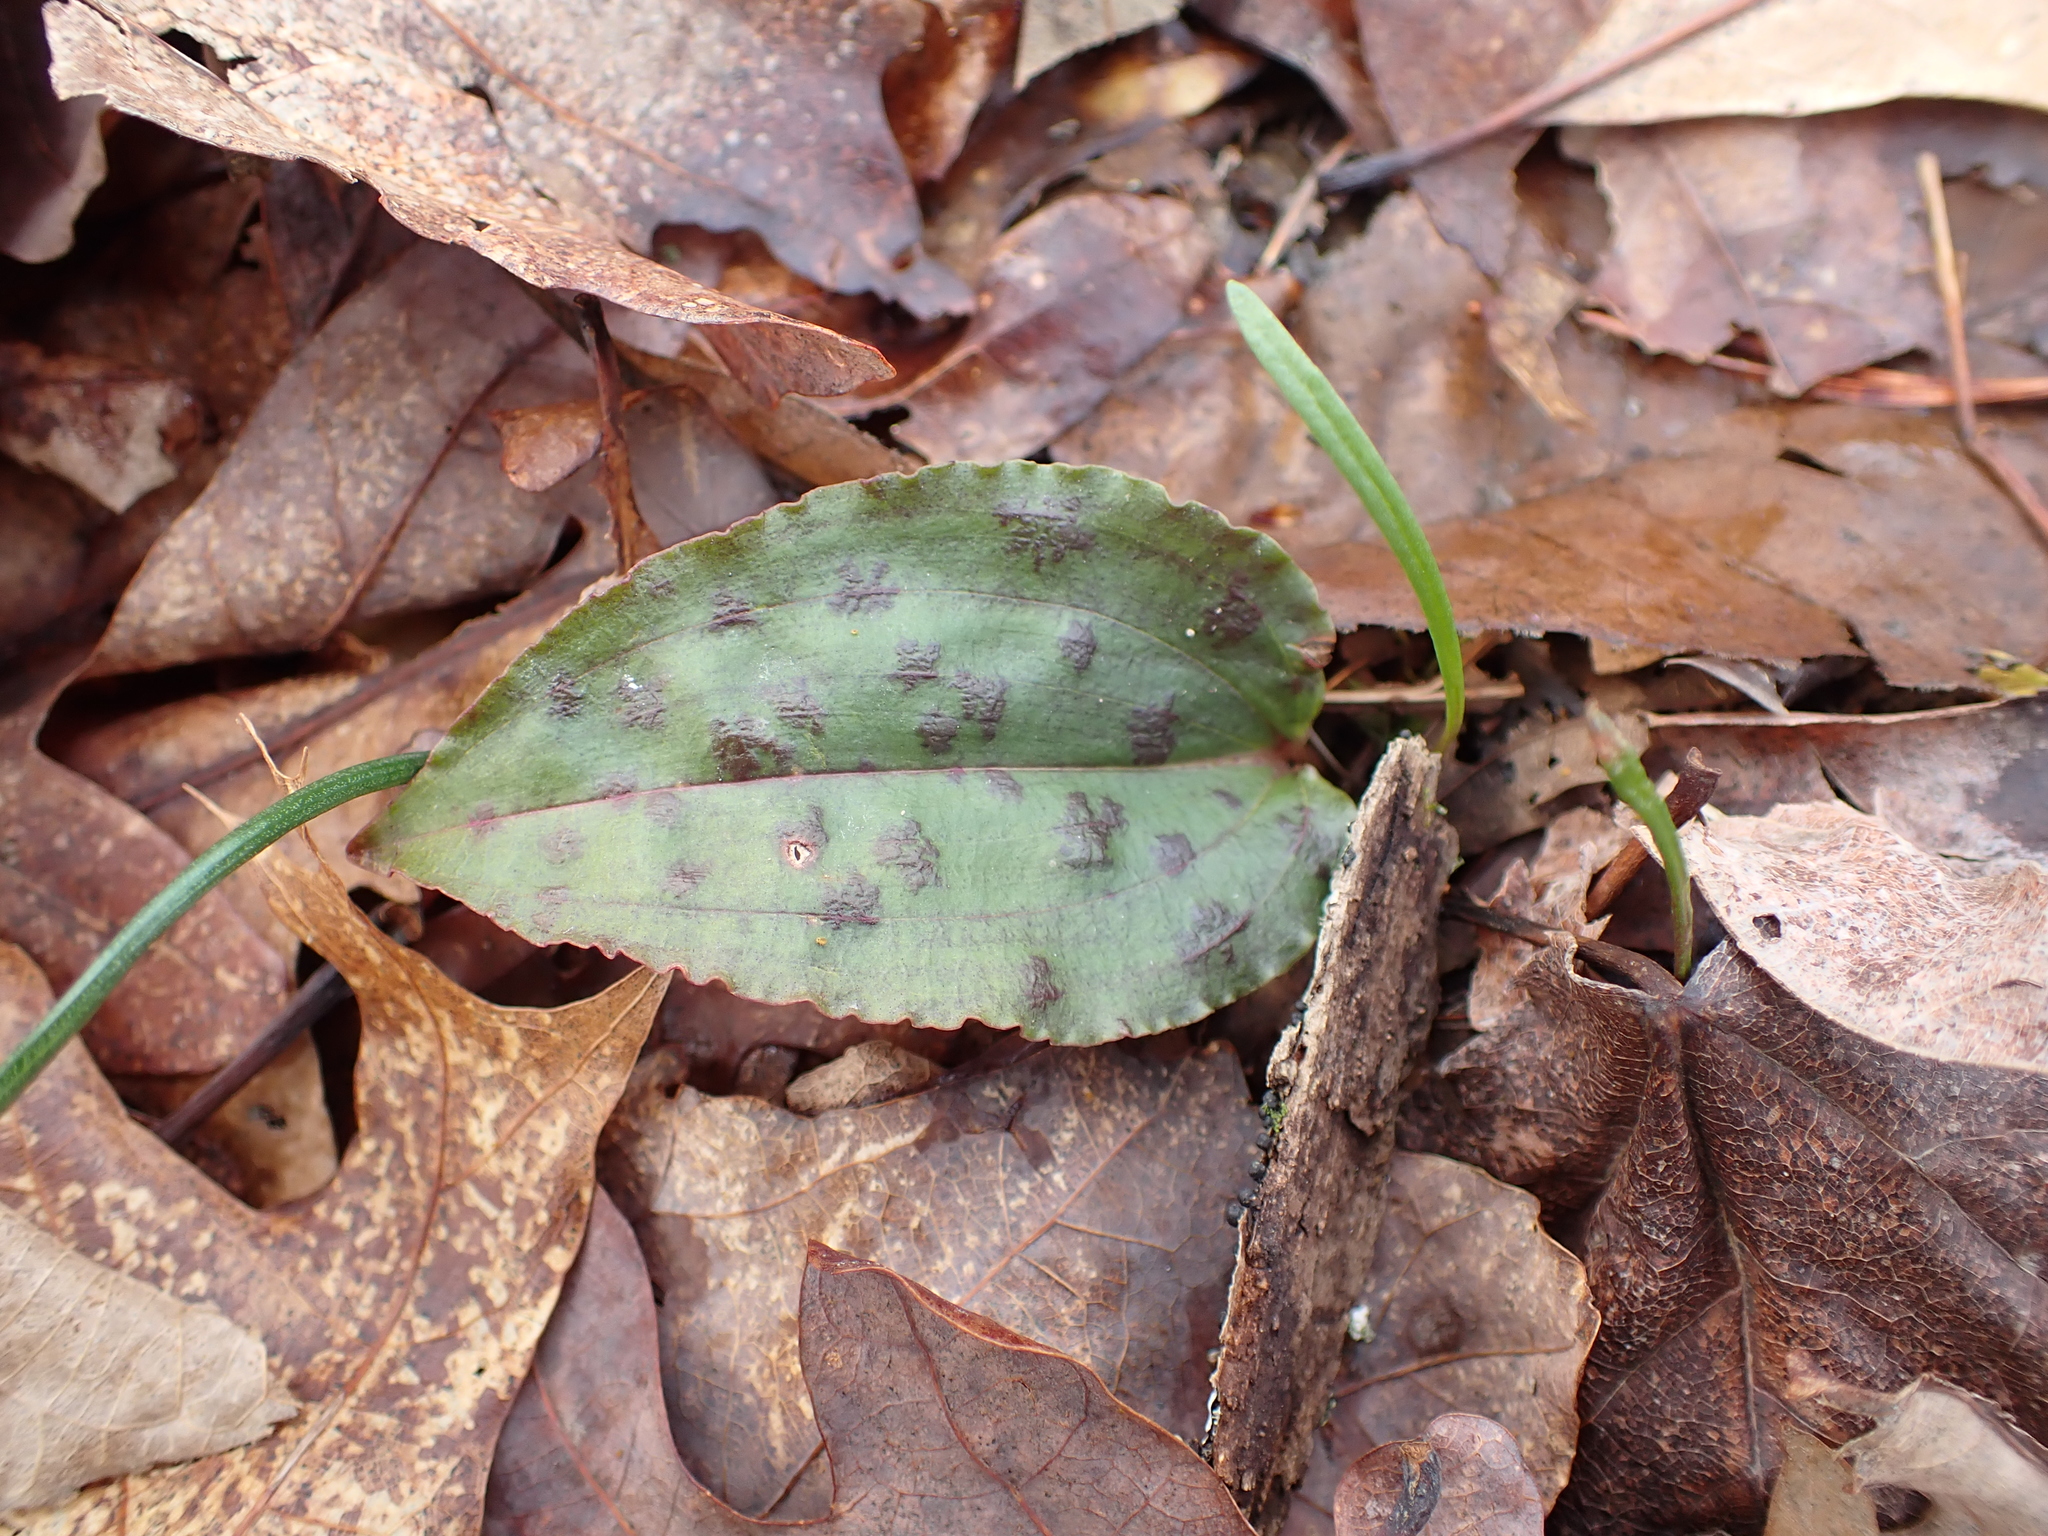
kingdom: Plantae
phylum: Tracheophyta
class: Liliopsida
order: Asparagales
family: Orchidaceae
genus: Tipularia
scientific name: Tipularia discolor
